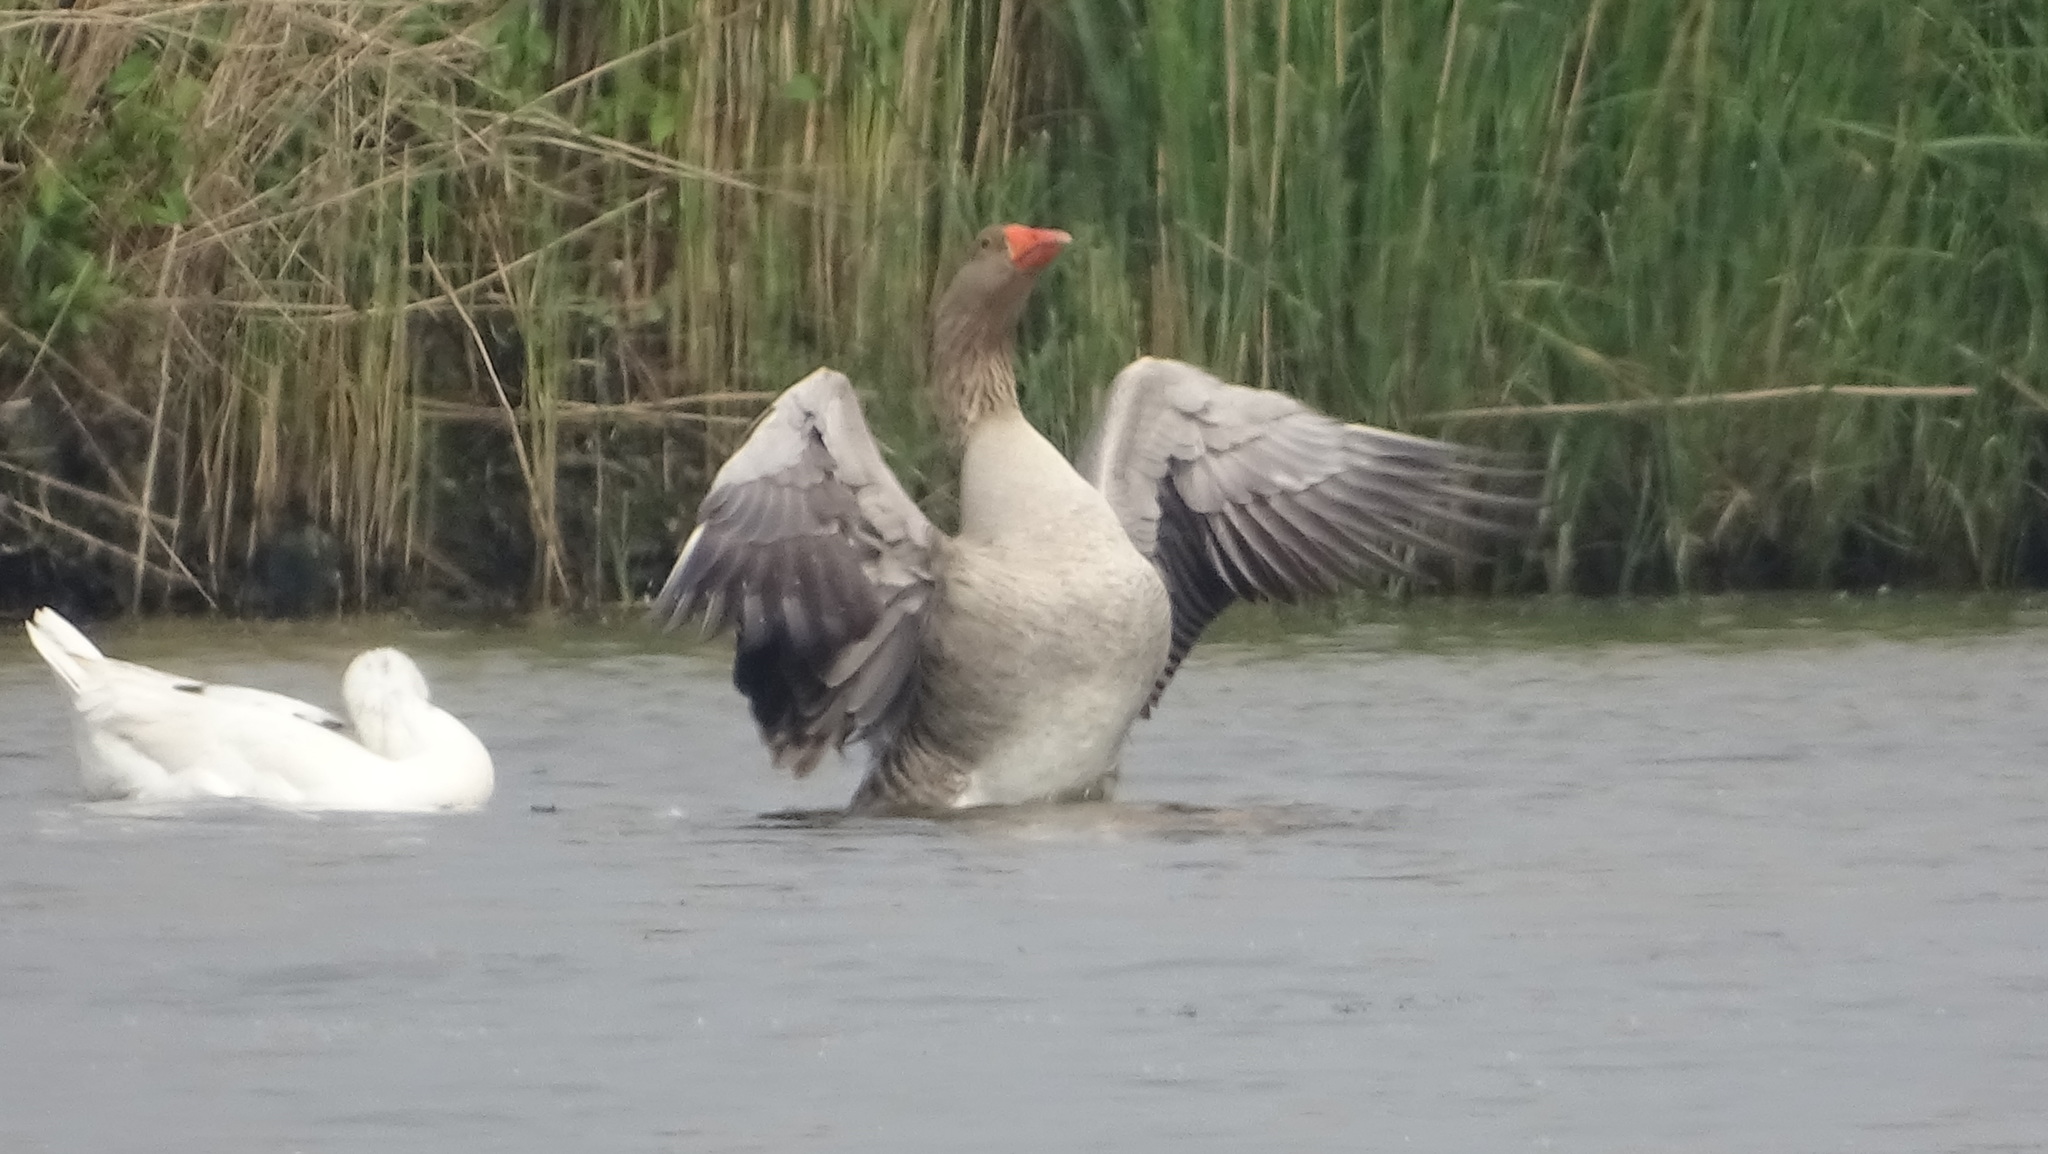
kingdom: Animalia
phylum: Chordata
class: Aves
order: Anseriformes
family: Anatidae
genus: Anser
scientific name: Anser anser
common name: Greylag goose
